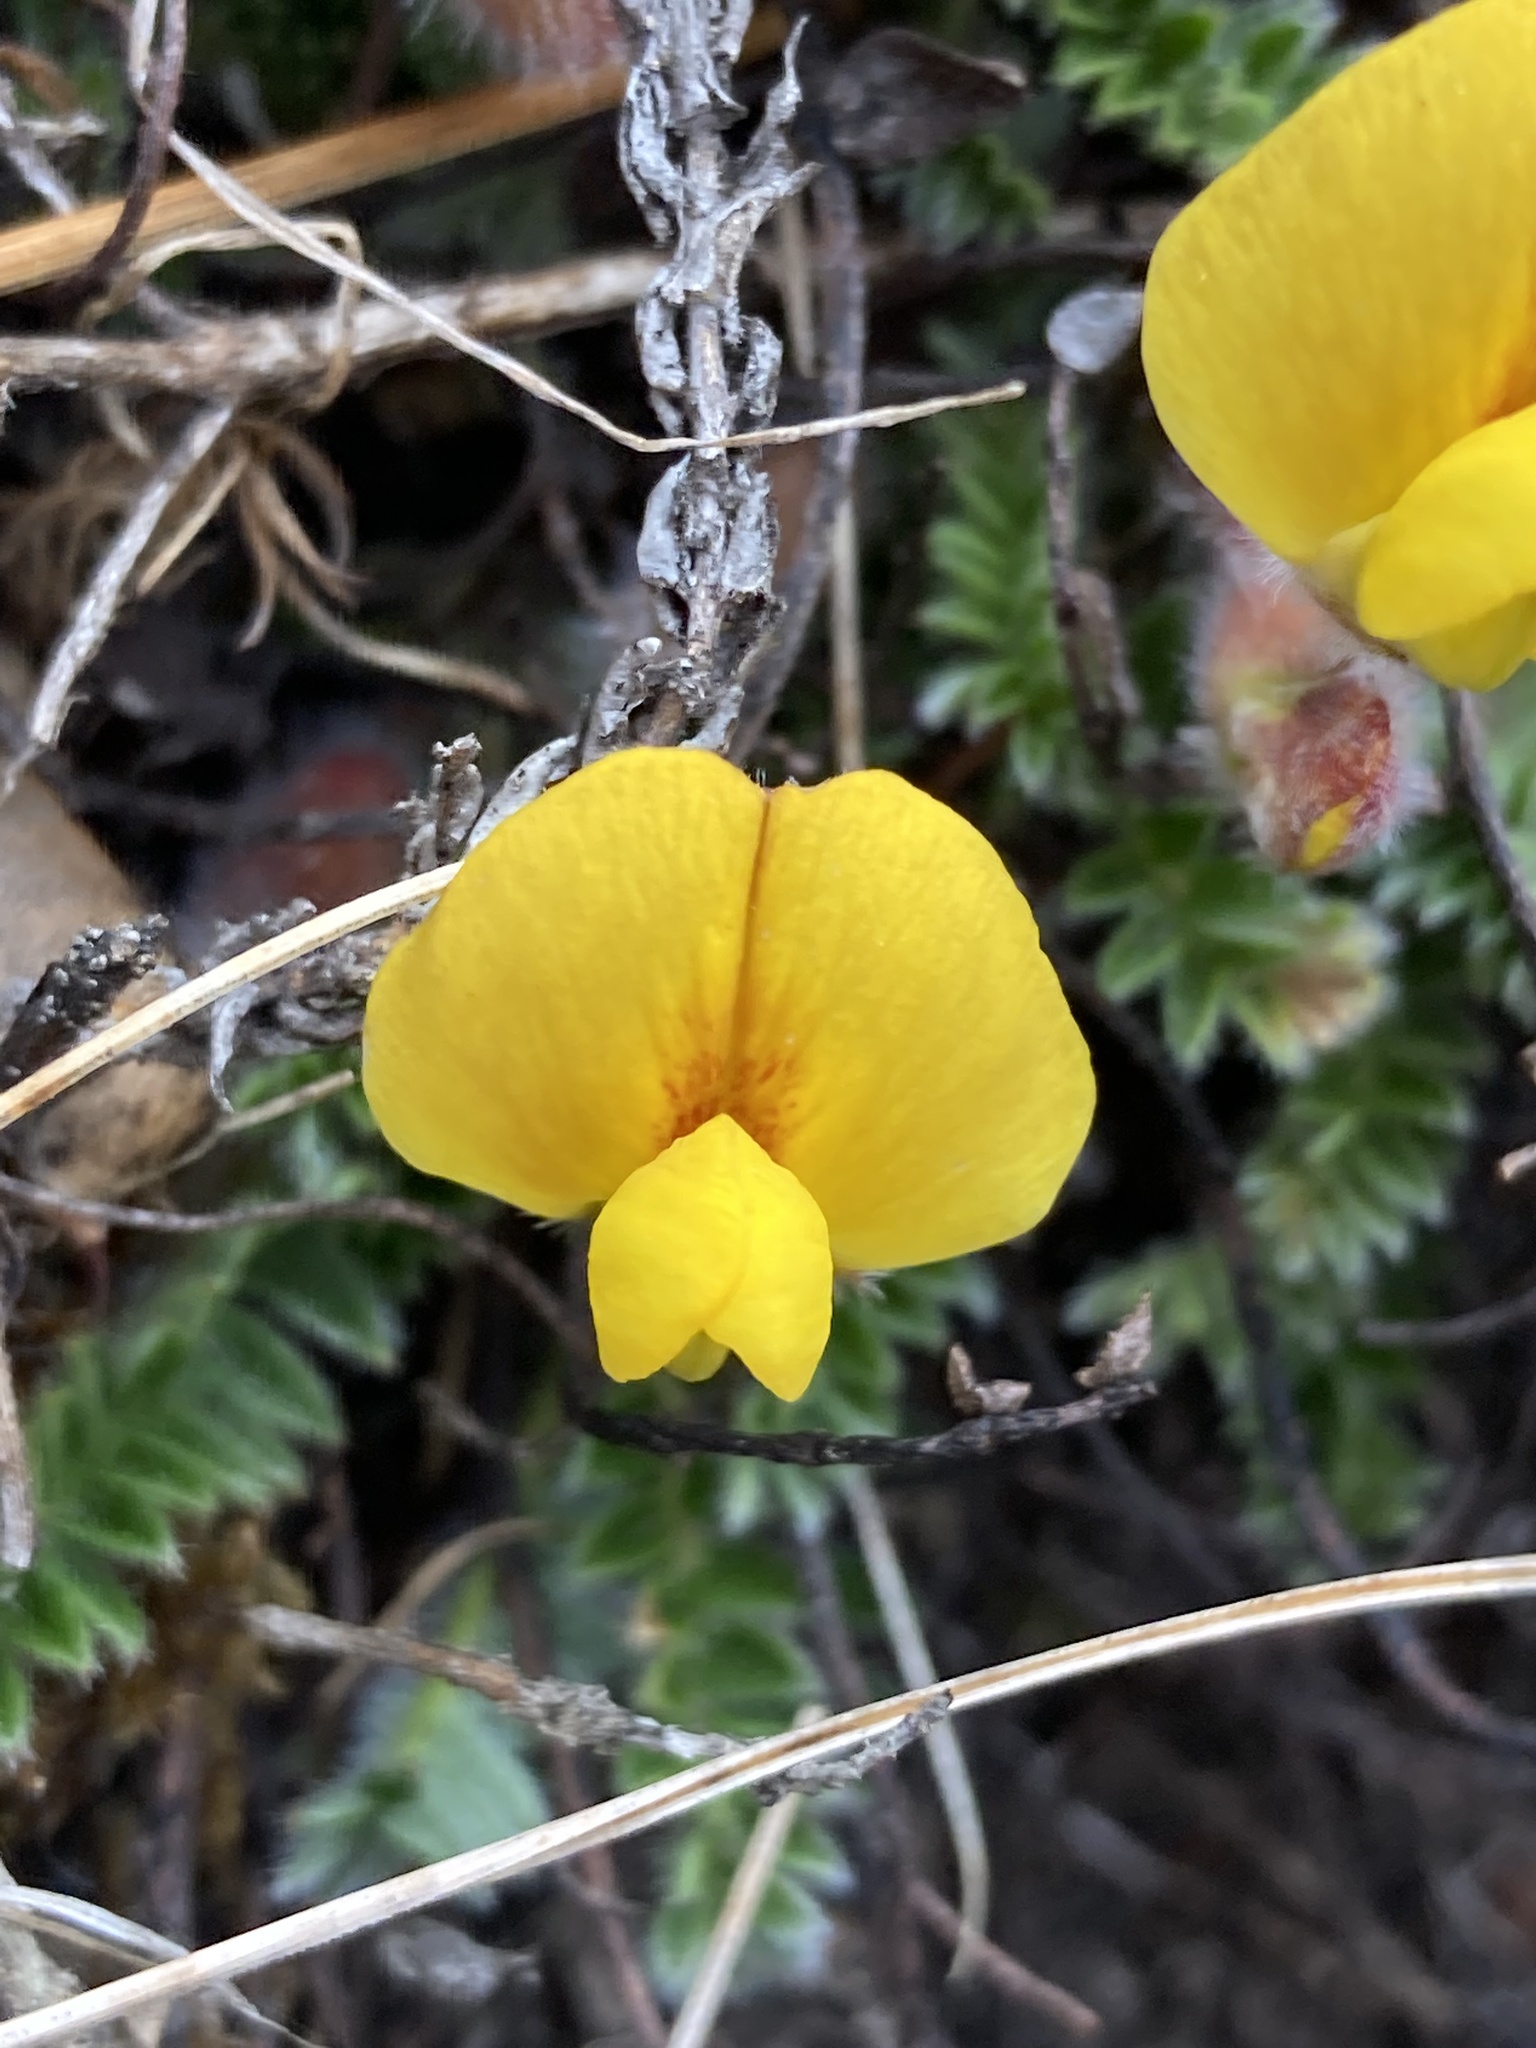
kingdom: Plantae
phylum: Tracheophyta
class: Magnoliopsida
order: Fabales
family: Fabaceae
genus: Chesneya
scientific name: Chesneya nubigena
